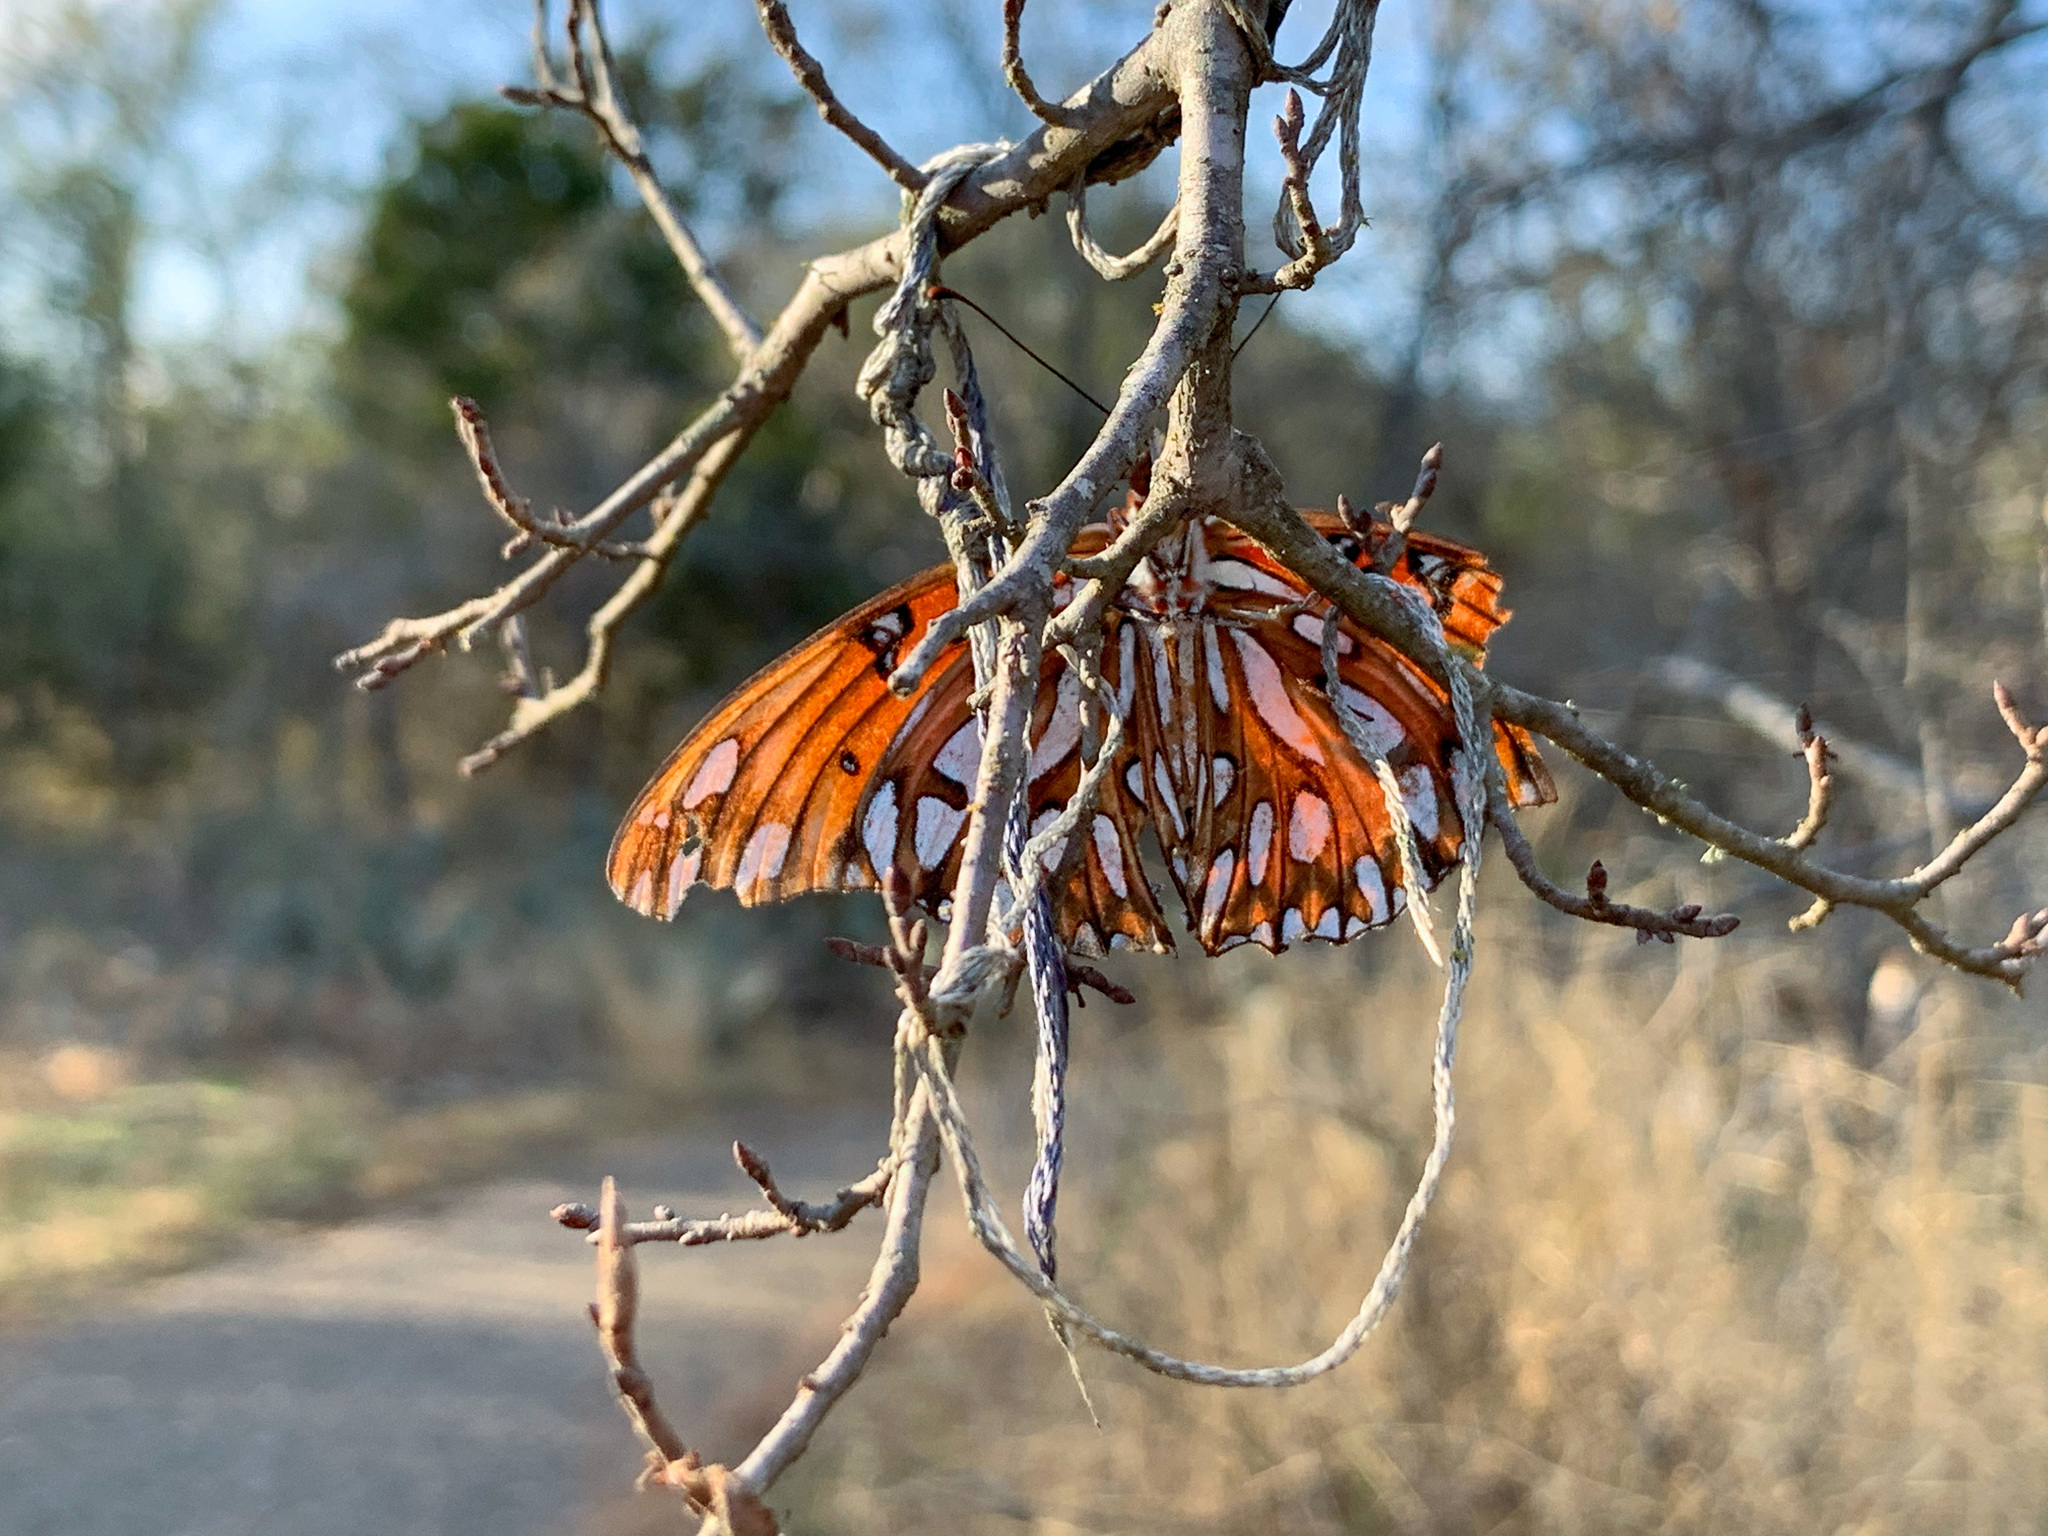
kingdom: Animalia
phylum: Arthropoda
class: Insecta
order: Lepidoptera
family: Nymphalidae
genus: Dione
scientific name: Dione vanillae
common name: Gulf fritillary
